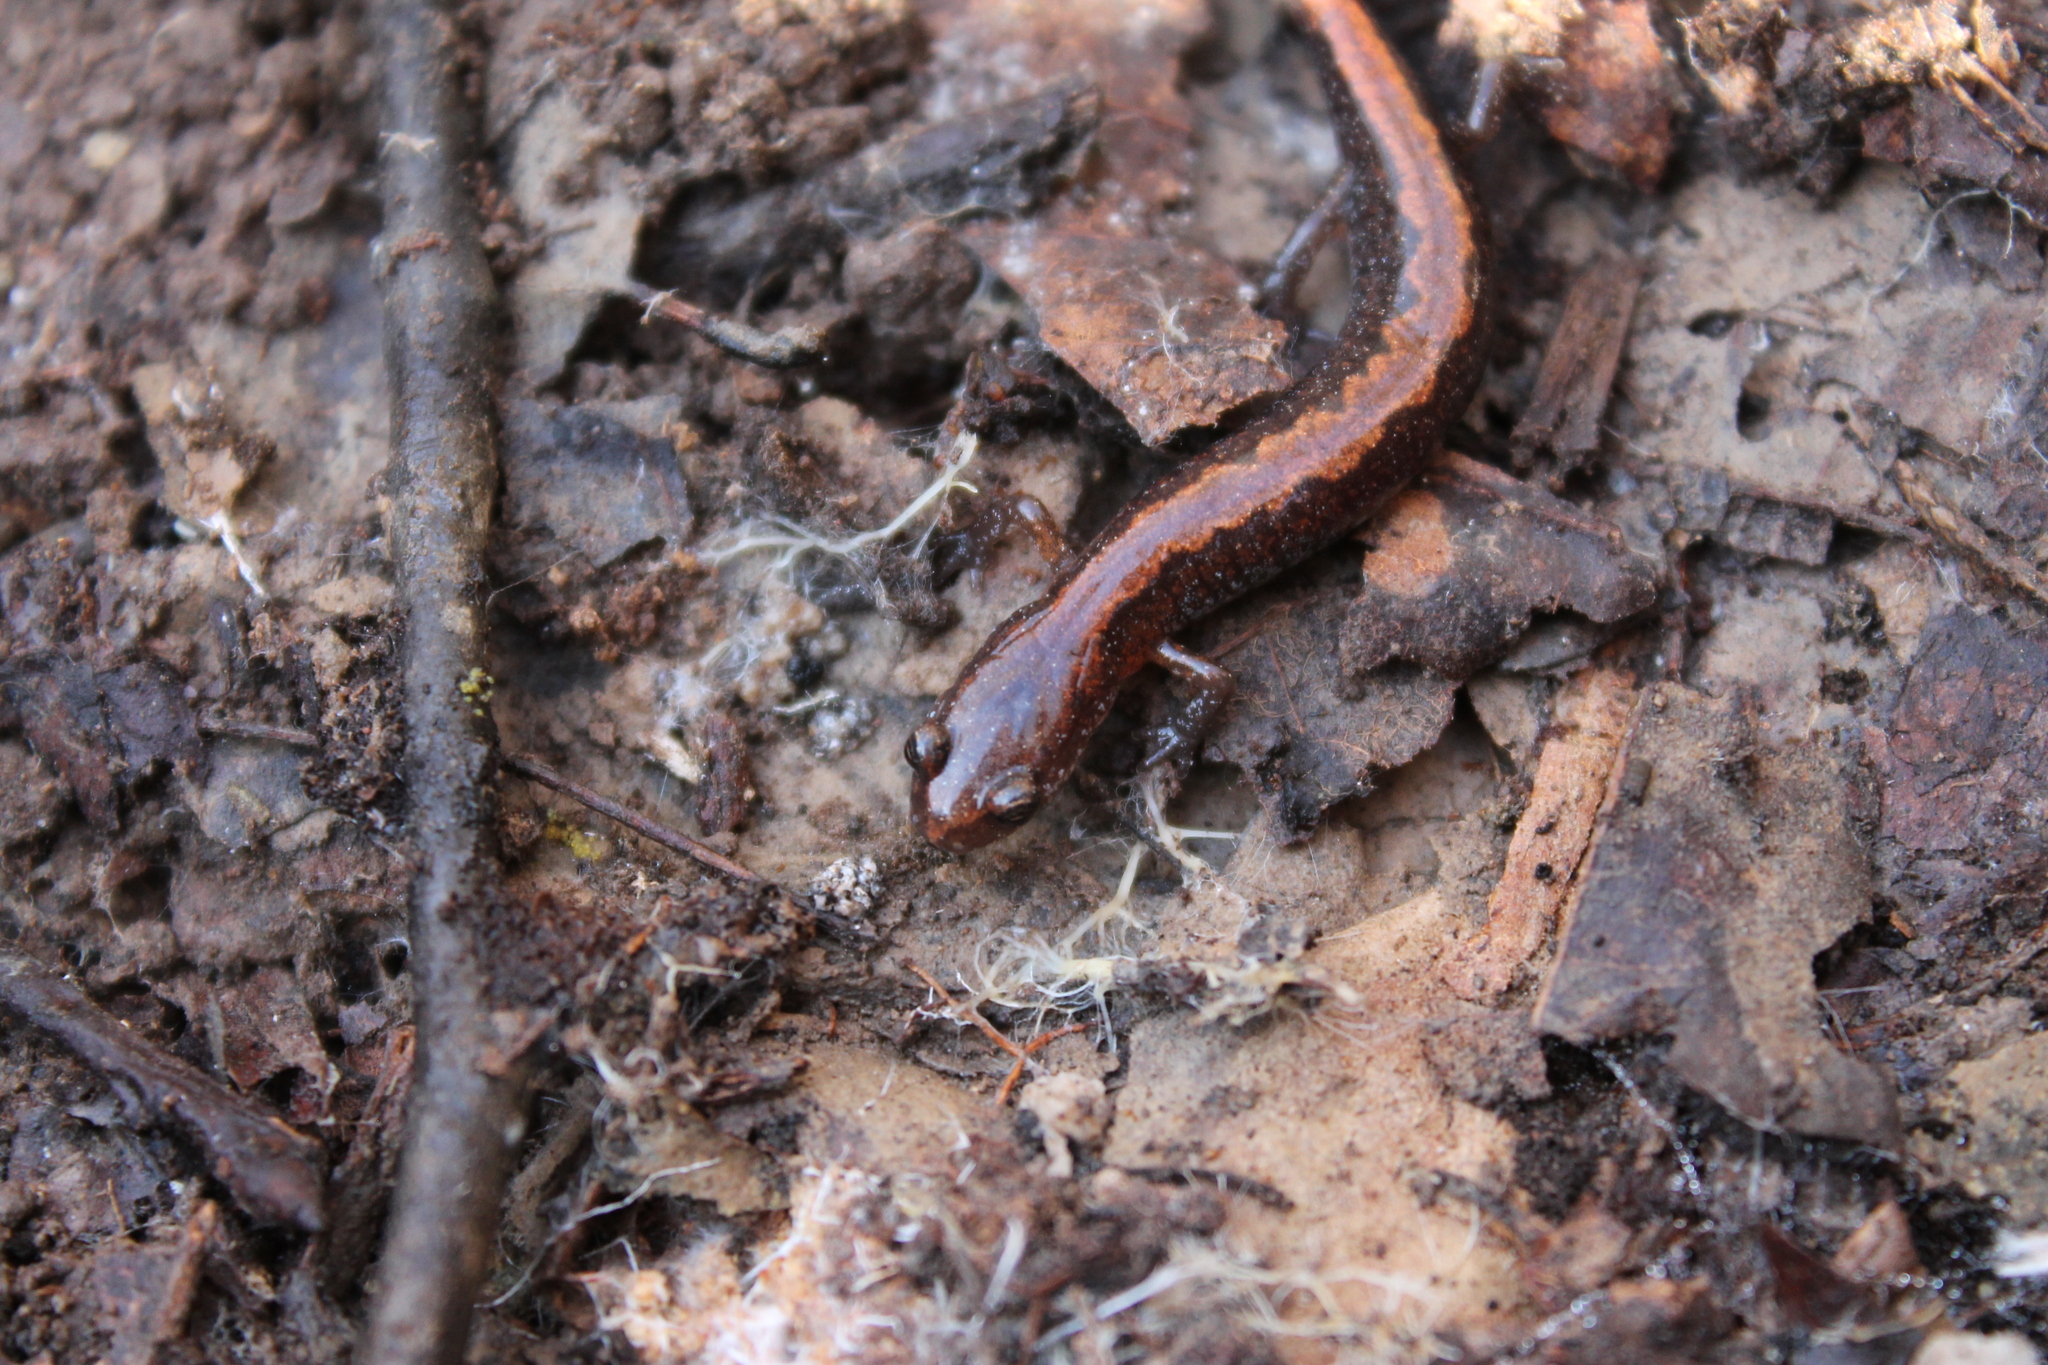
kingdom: Animalia
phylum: Chordata
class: Amphibia
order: Caudata
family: Plethodontidae
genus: Plethodon
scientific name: Plethodon dorsalis
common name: Northern zigzag salamander
